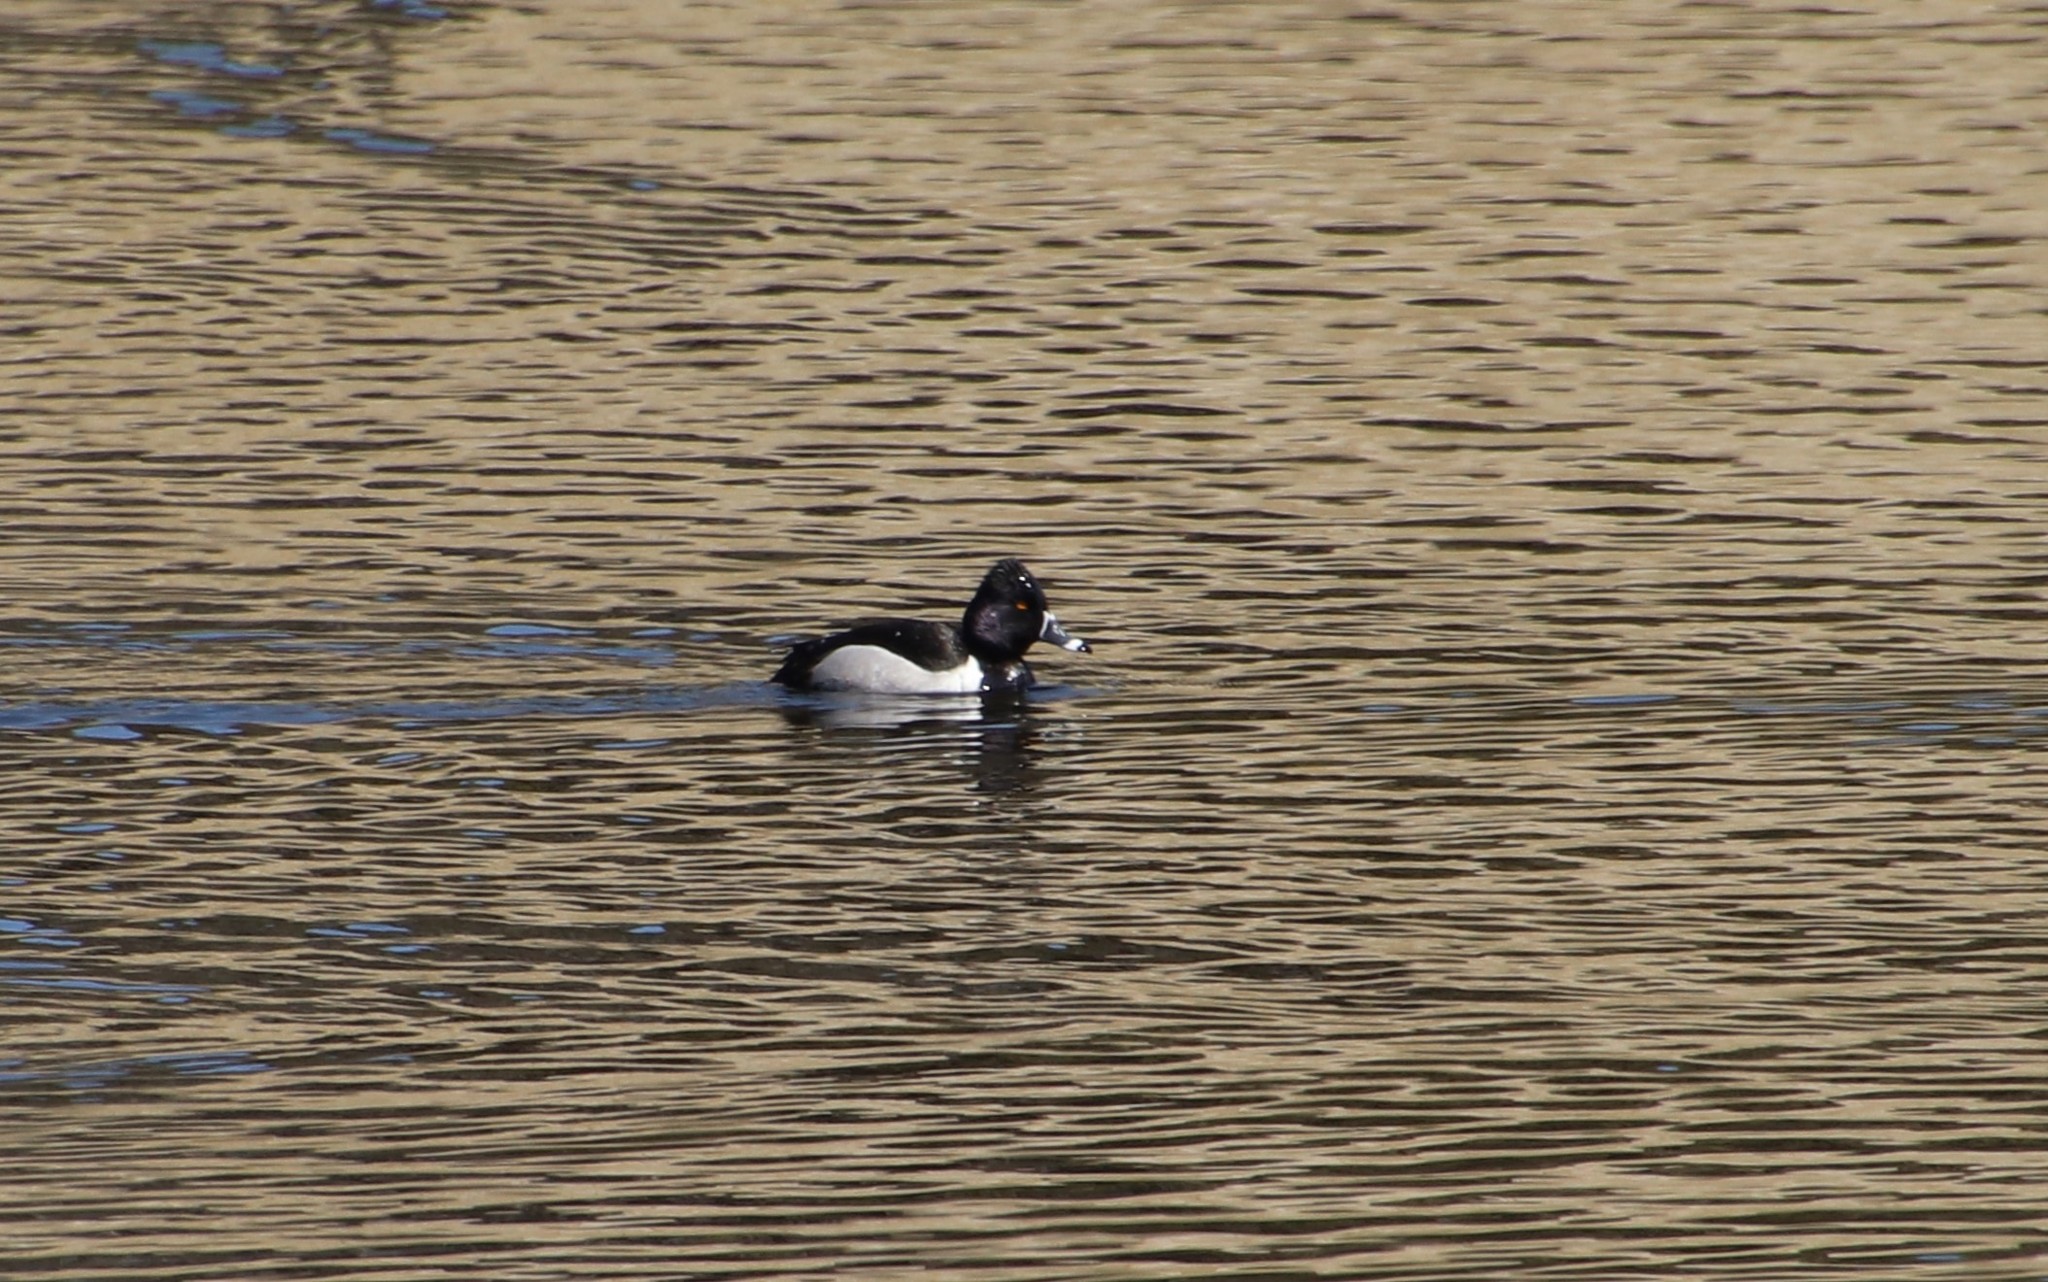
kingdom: Animalia
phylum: Chordata
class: Aves
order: Anseriformes
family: Anatidae
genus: Aythya
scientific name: Aythya collaris
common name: Ring-necked duck
